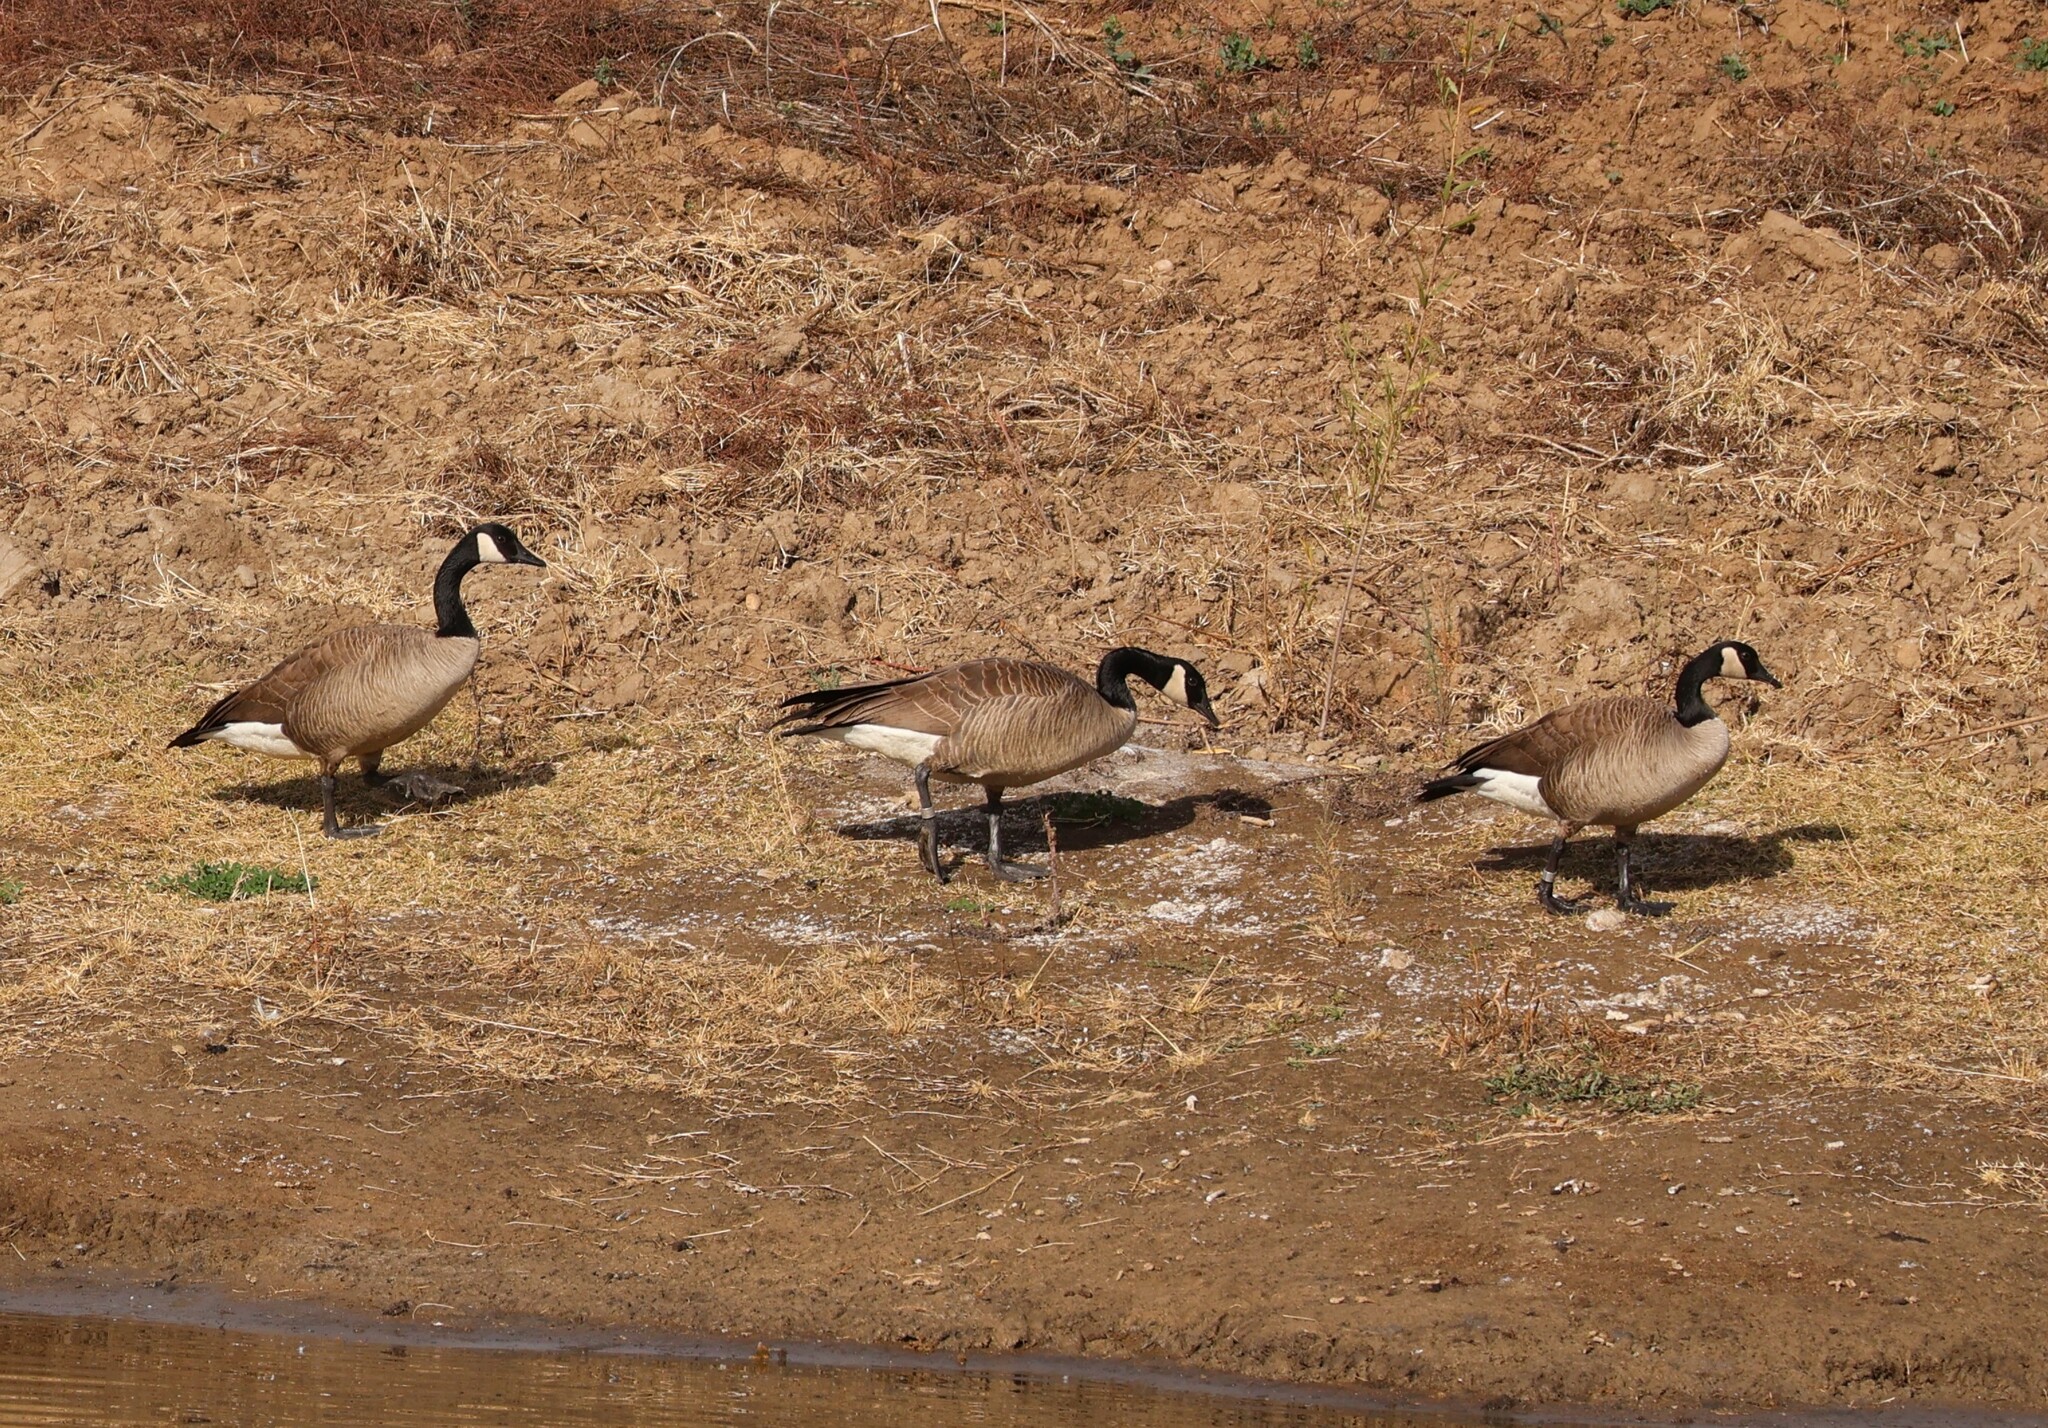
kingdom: Animalia
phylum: Chordata
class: Aves
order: Anseriformes
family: Anatidae
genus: Branta
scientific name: Branta canadensis
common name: Canada goose
